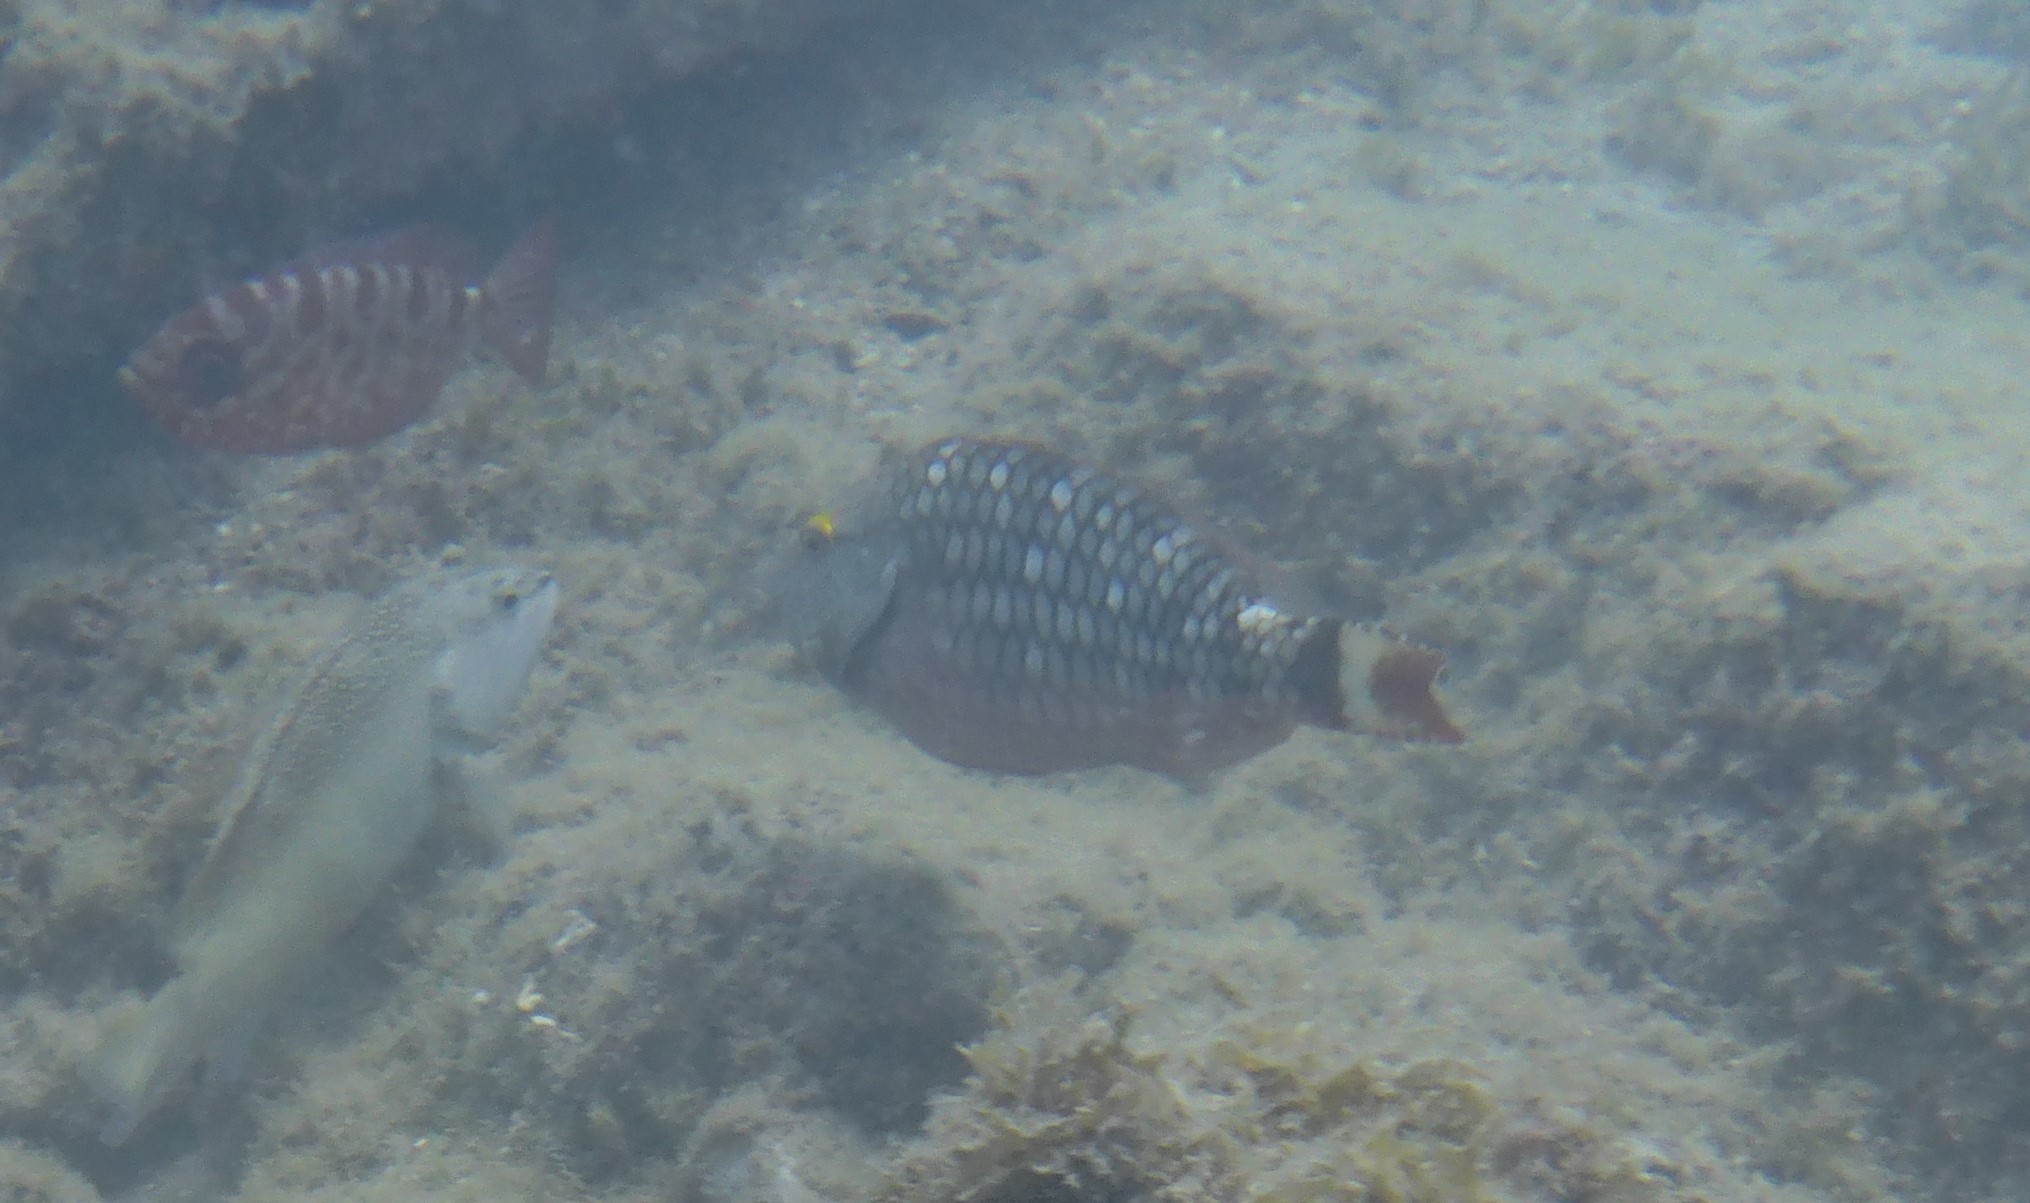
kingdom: Animalia
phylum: Chordata
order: Perciformes
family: Scaridae
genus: Sparisoma
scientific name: Sparisoma viride
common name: Stoplight parrotfish
